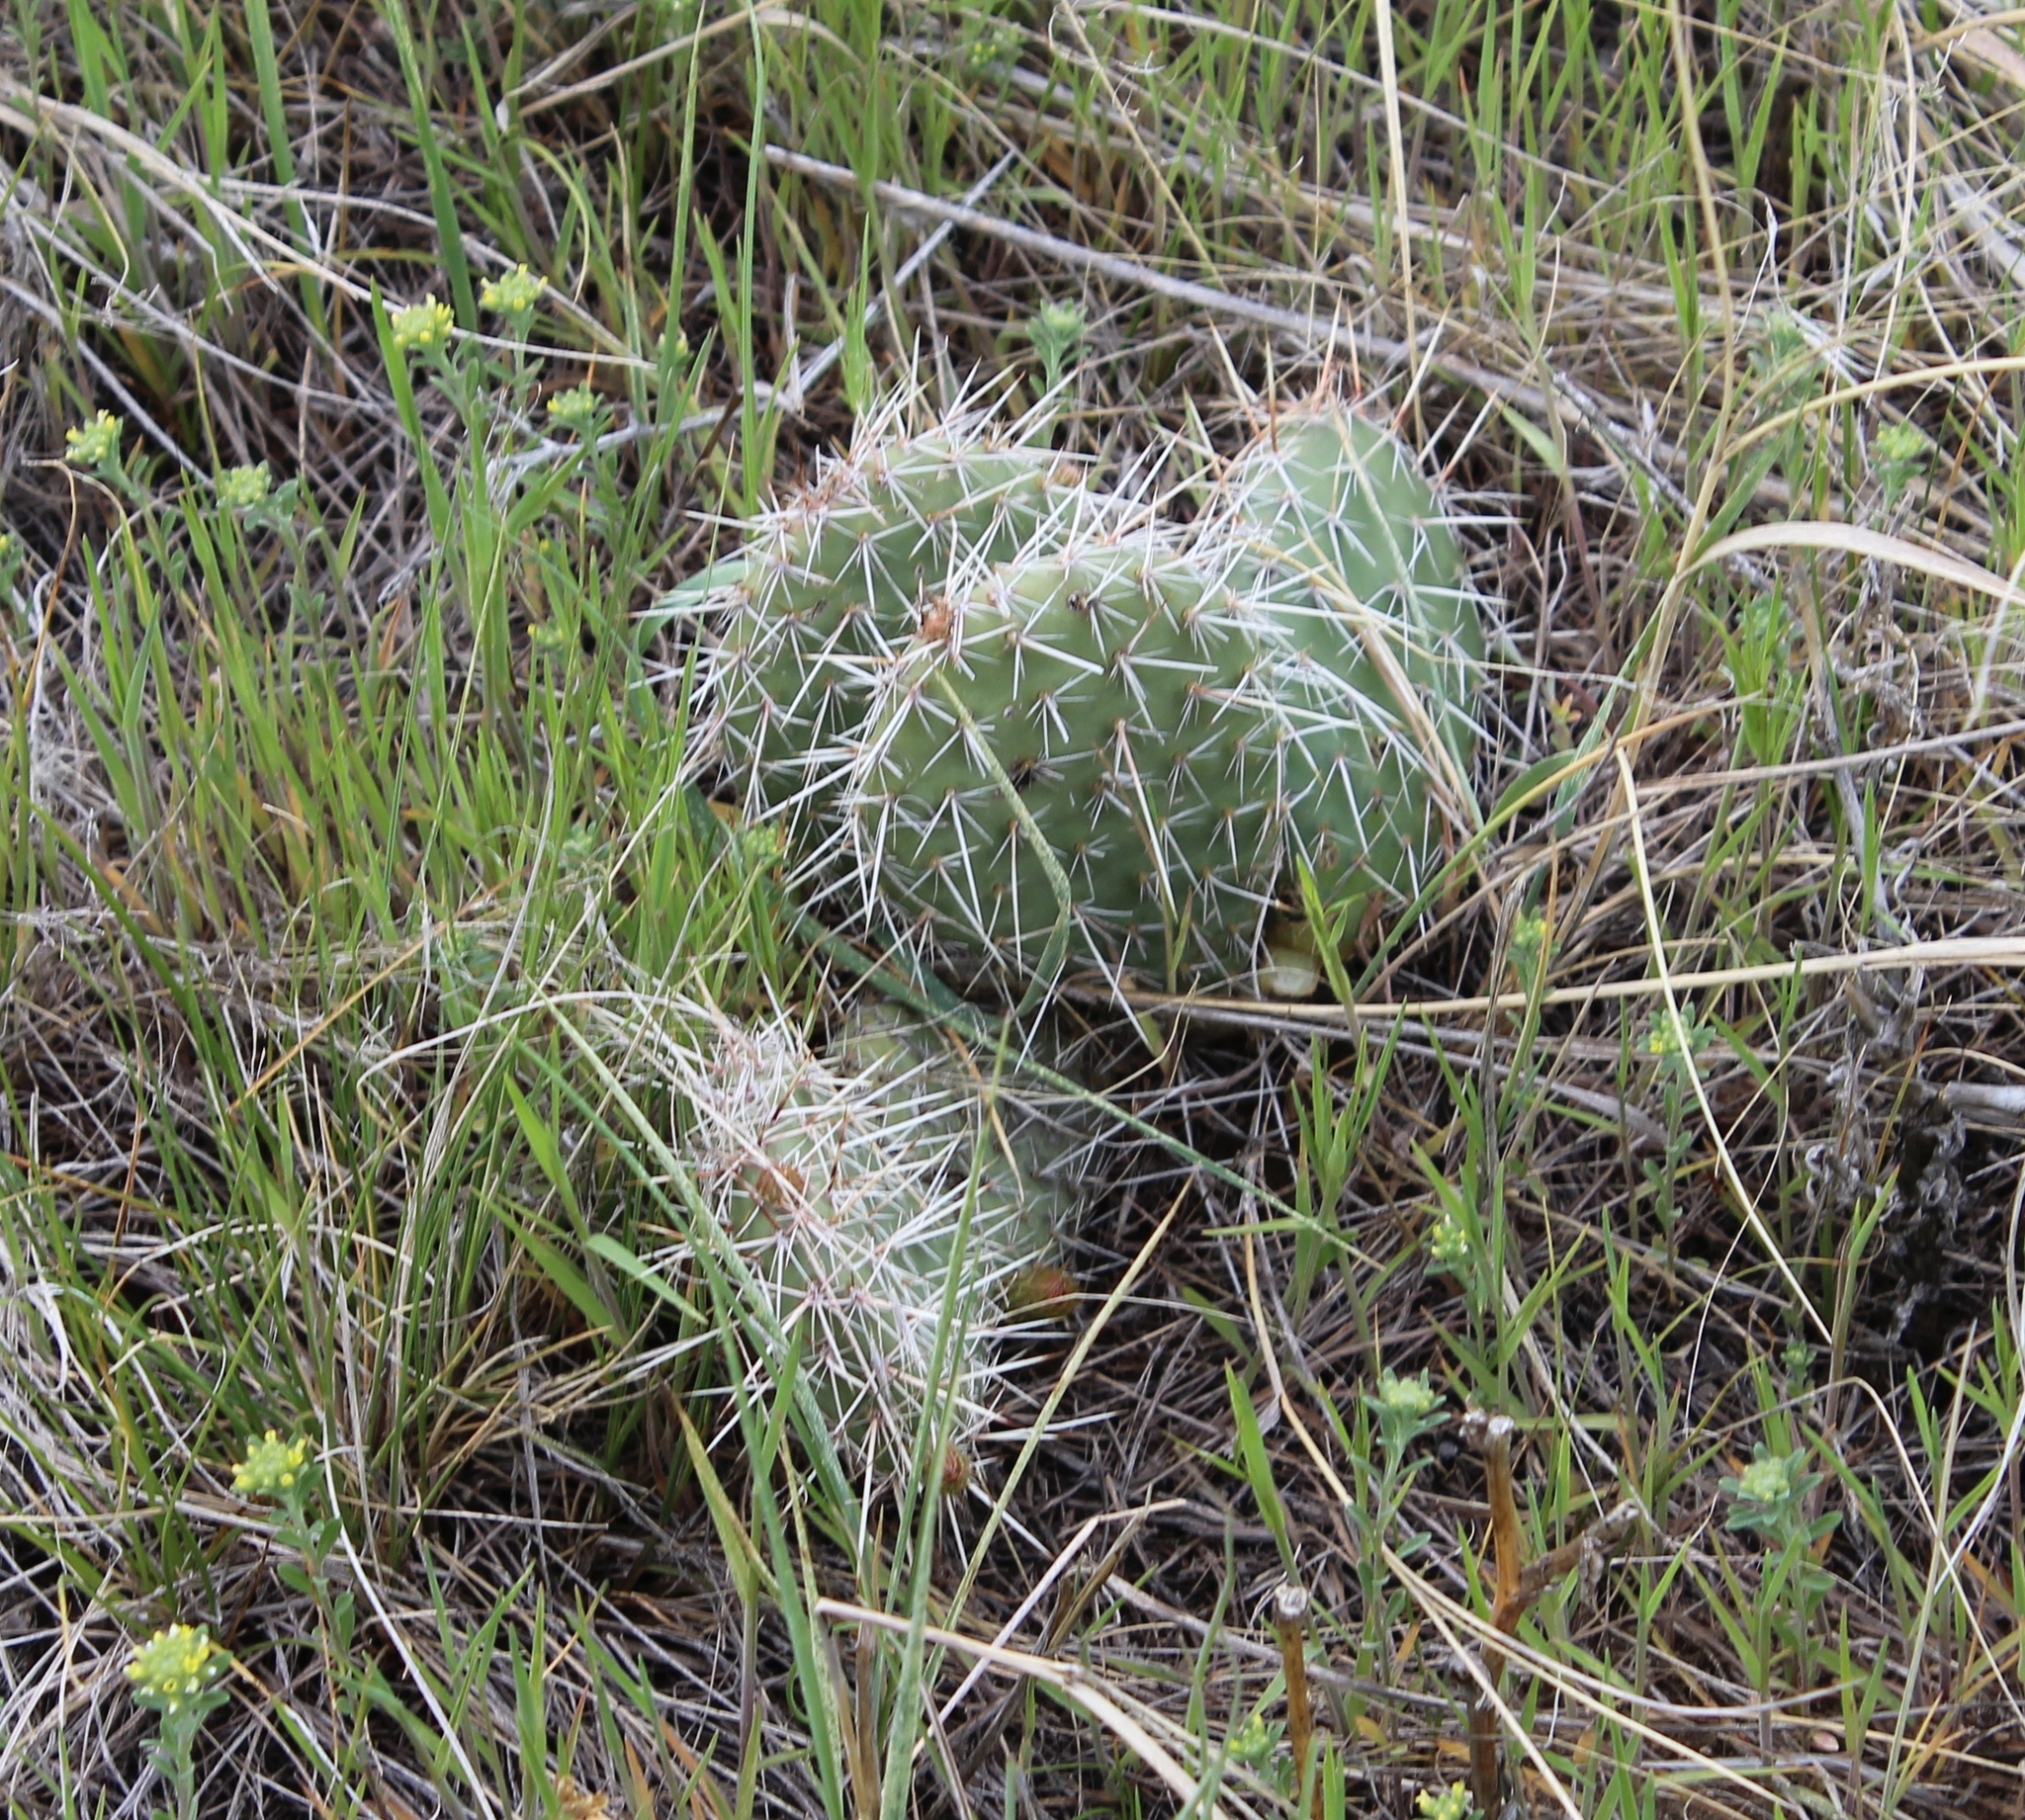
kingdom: Plantae
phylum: Tracheophyta
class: Magnoliopsida
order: Caryophyllales
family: Cactaceae
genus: Opuntia
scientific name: Opuntia polyacantha
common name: Plains prickly-pear
